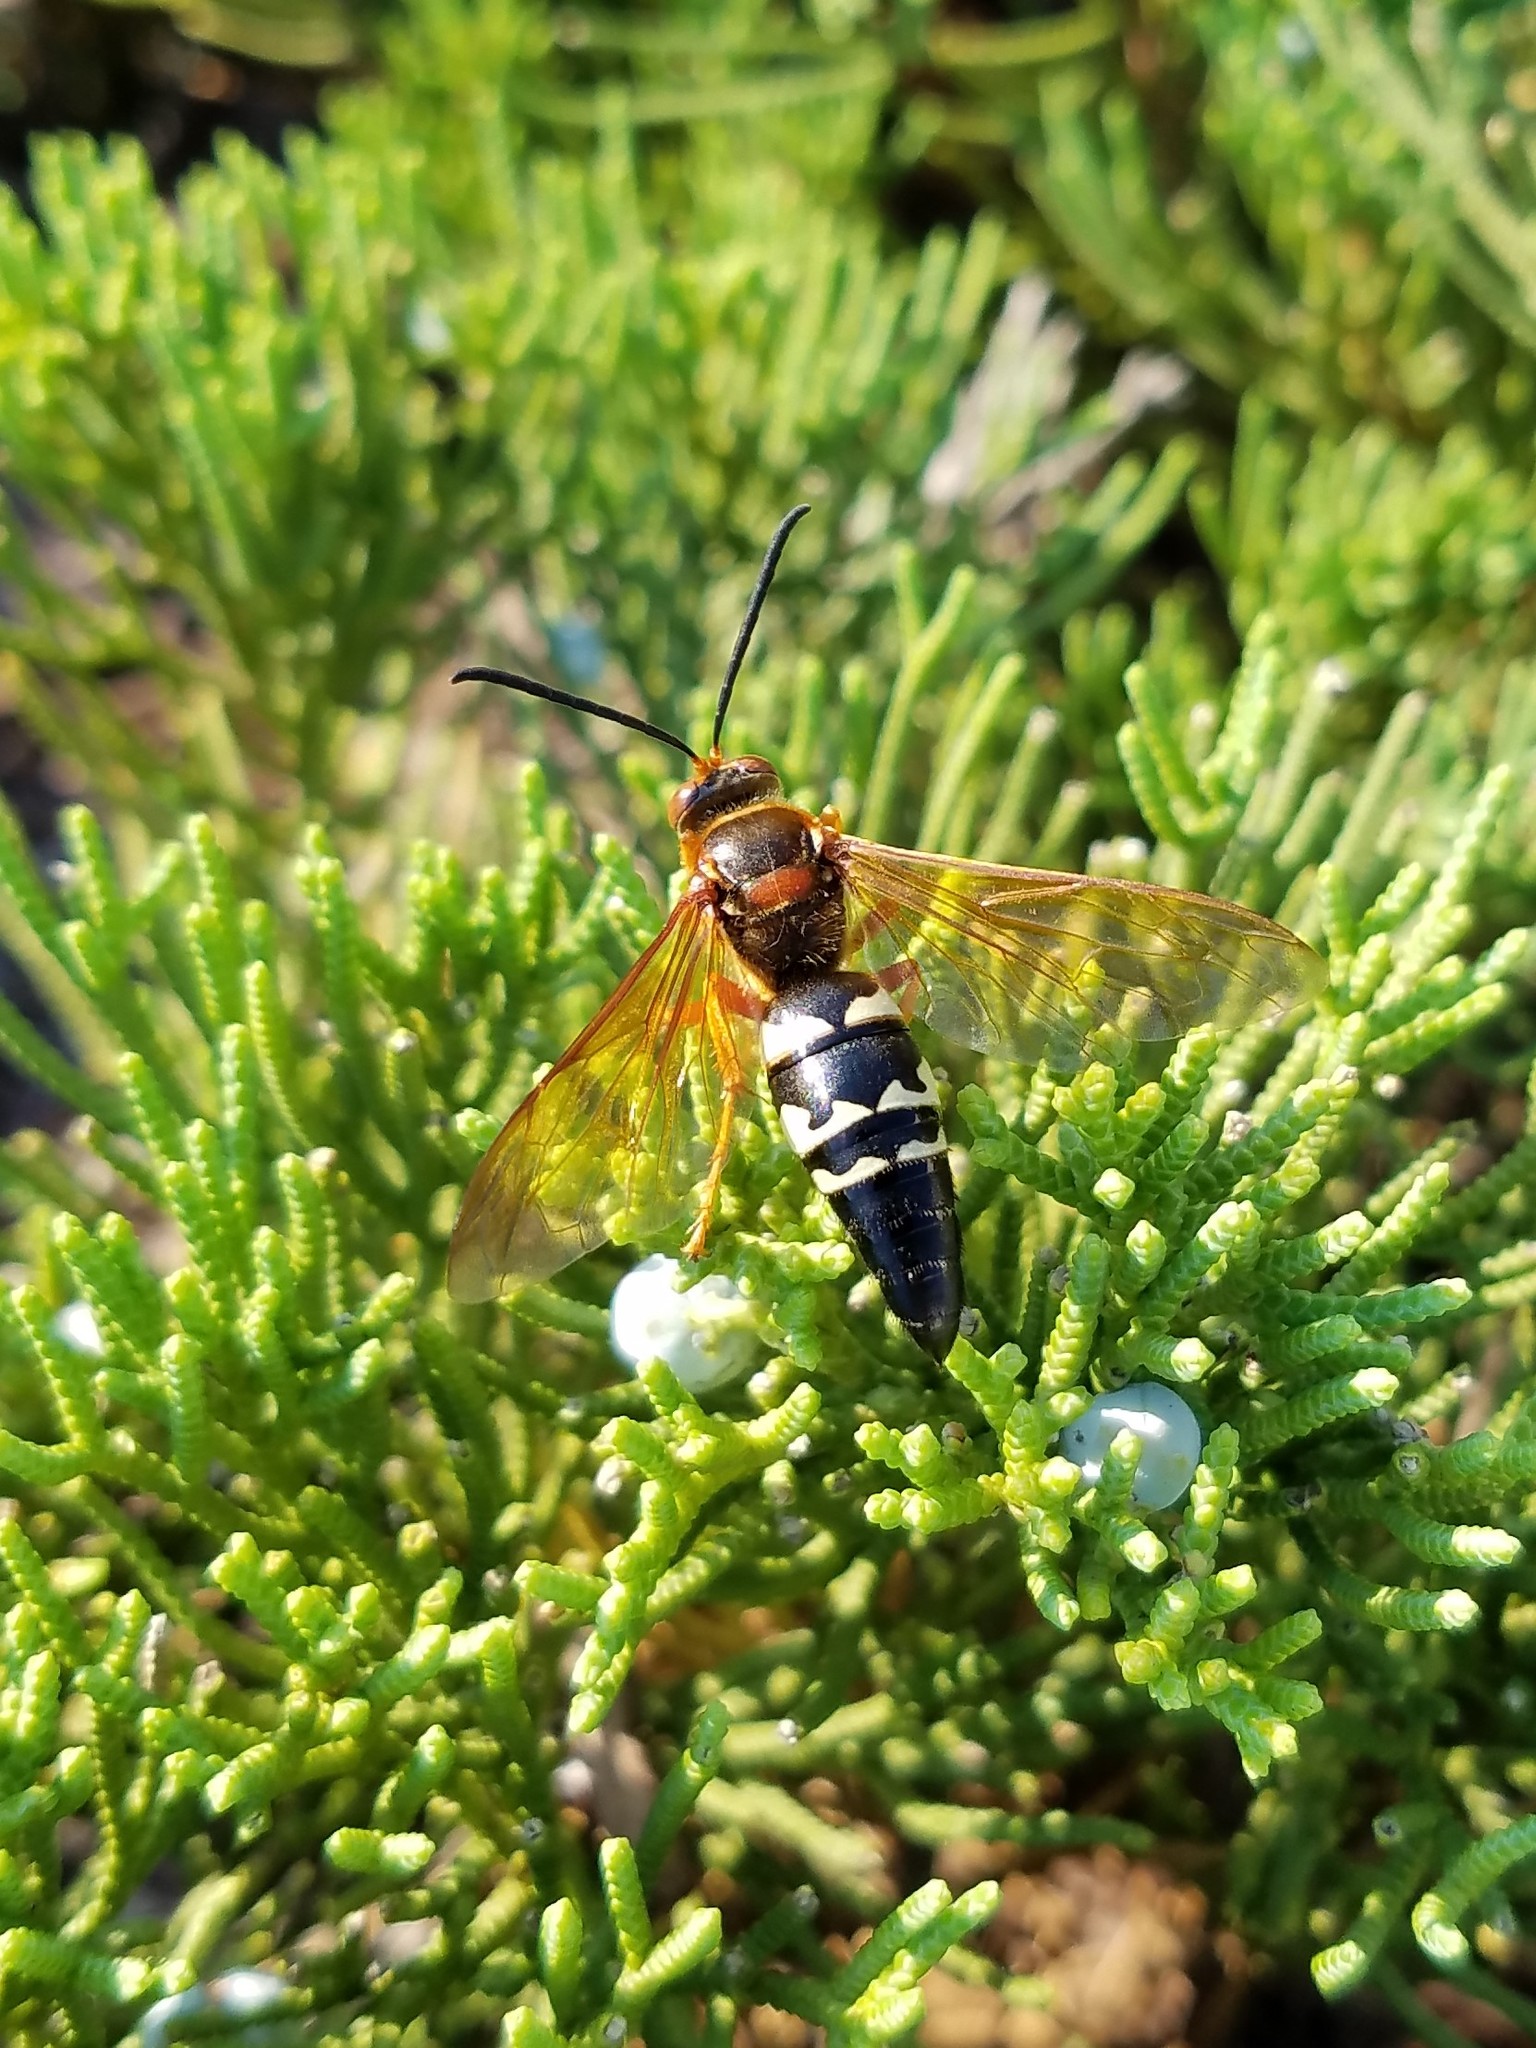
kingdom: Animalia
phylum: Arthropoda
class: Insecta
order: Hymenoptera
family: Crabronidae
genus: Sphecius
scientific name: Sphecius speciosus
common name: Cicada killer
